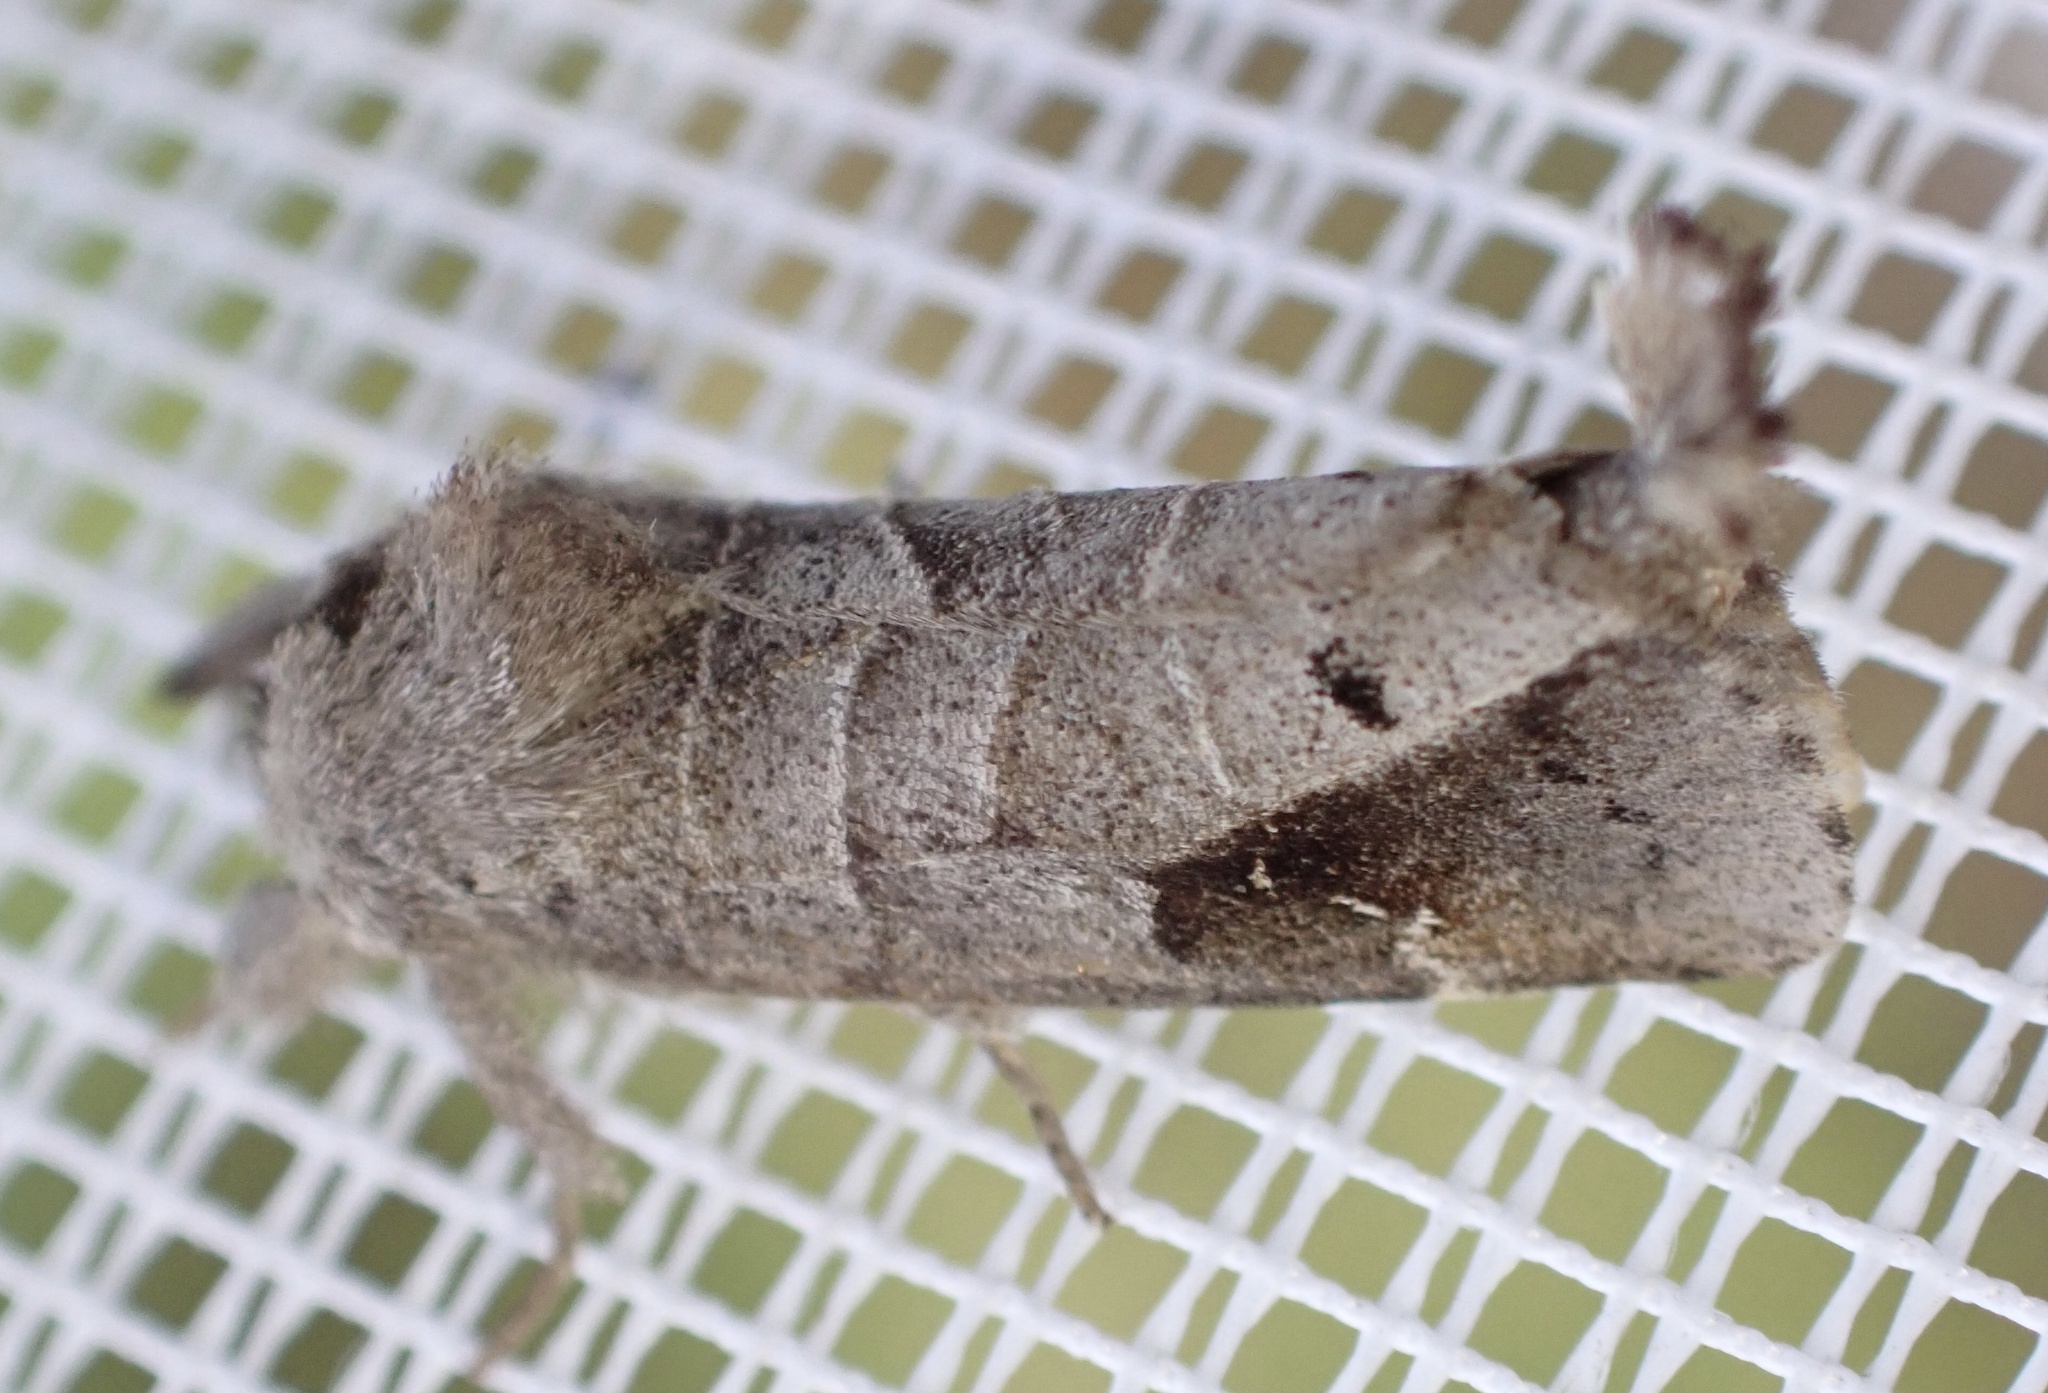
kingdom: Animalia
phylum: Arthropoda
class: Insecta
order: Lepidoptera
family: Notodontidae
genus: Clostera
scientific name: Clostera pigra
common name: Small chocolate-tip
